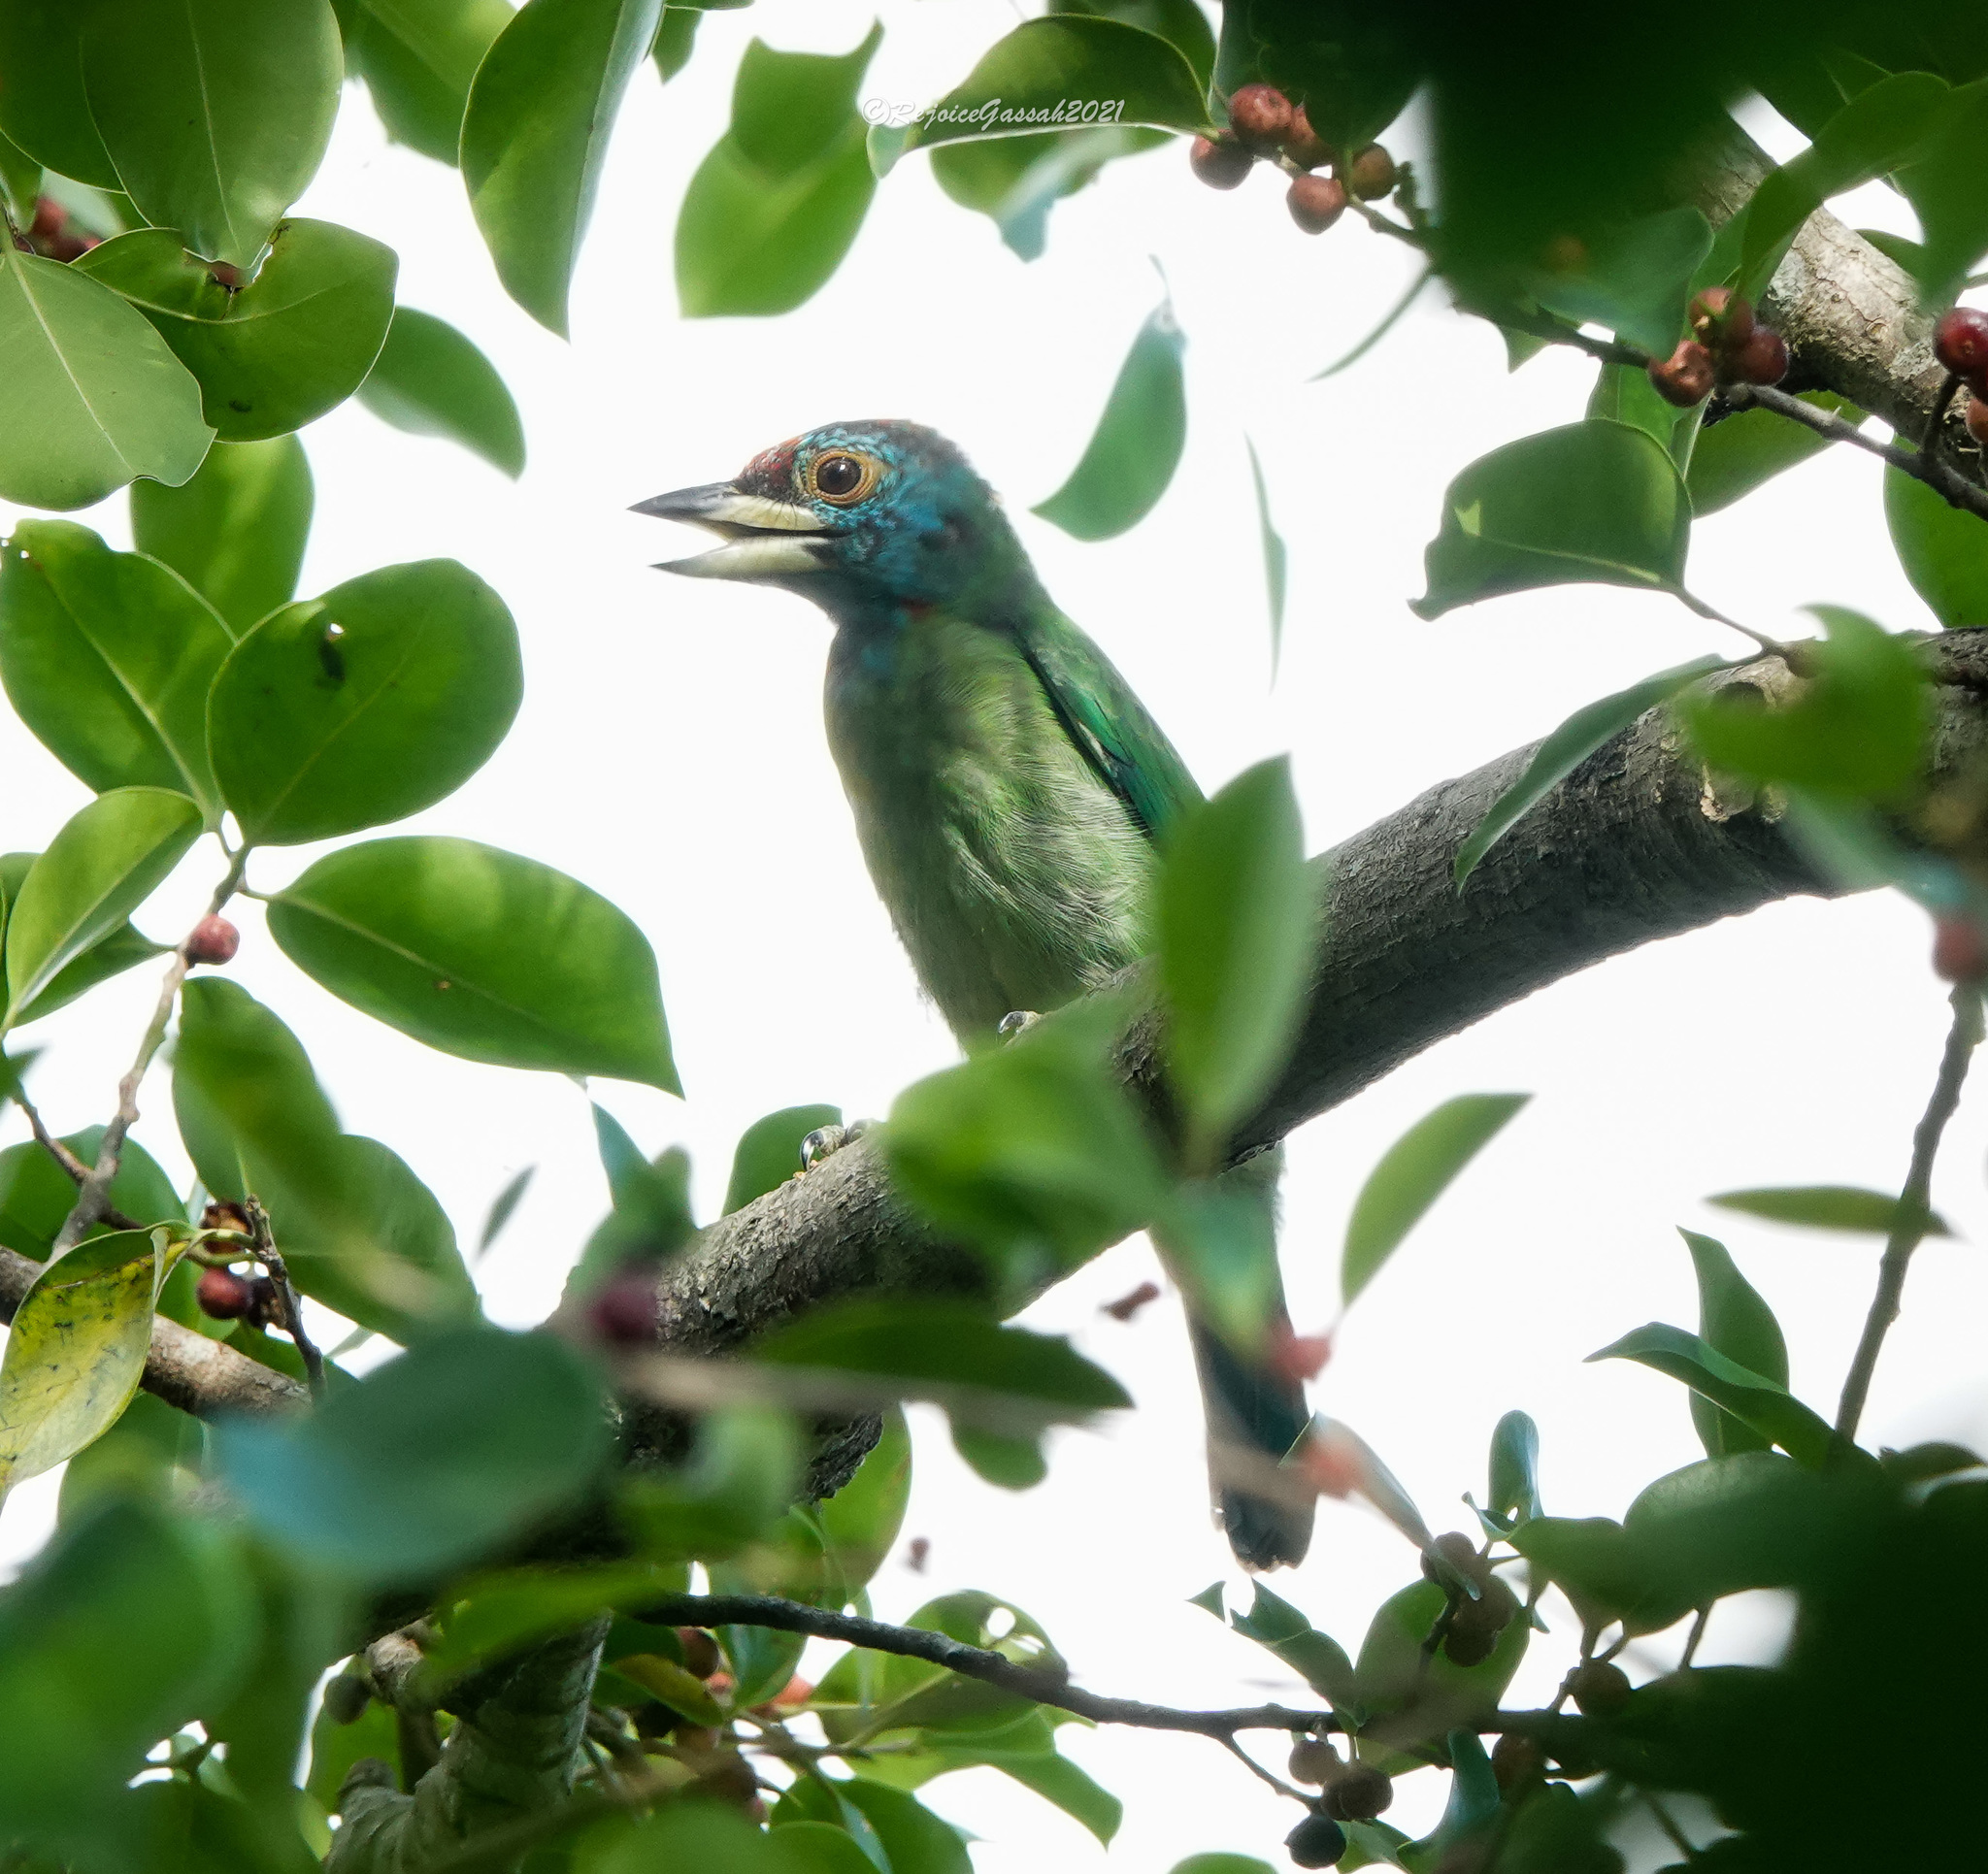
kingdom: Animalia
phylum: Chordata
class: Aves
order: Piciformes
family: Megalaimidae
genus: Psilopogon
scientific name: Psilopogon asiaticus
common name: Blue-throated barbet
